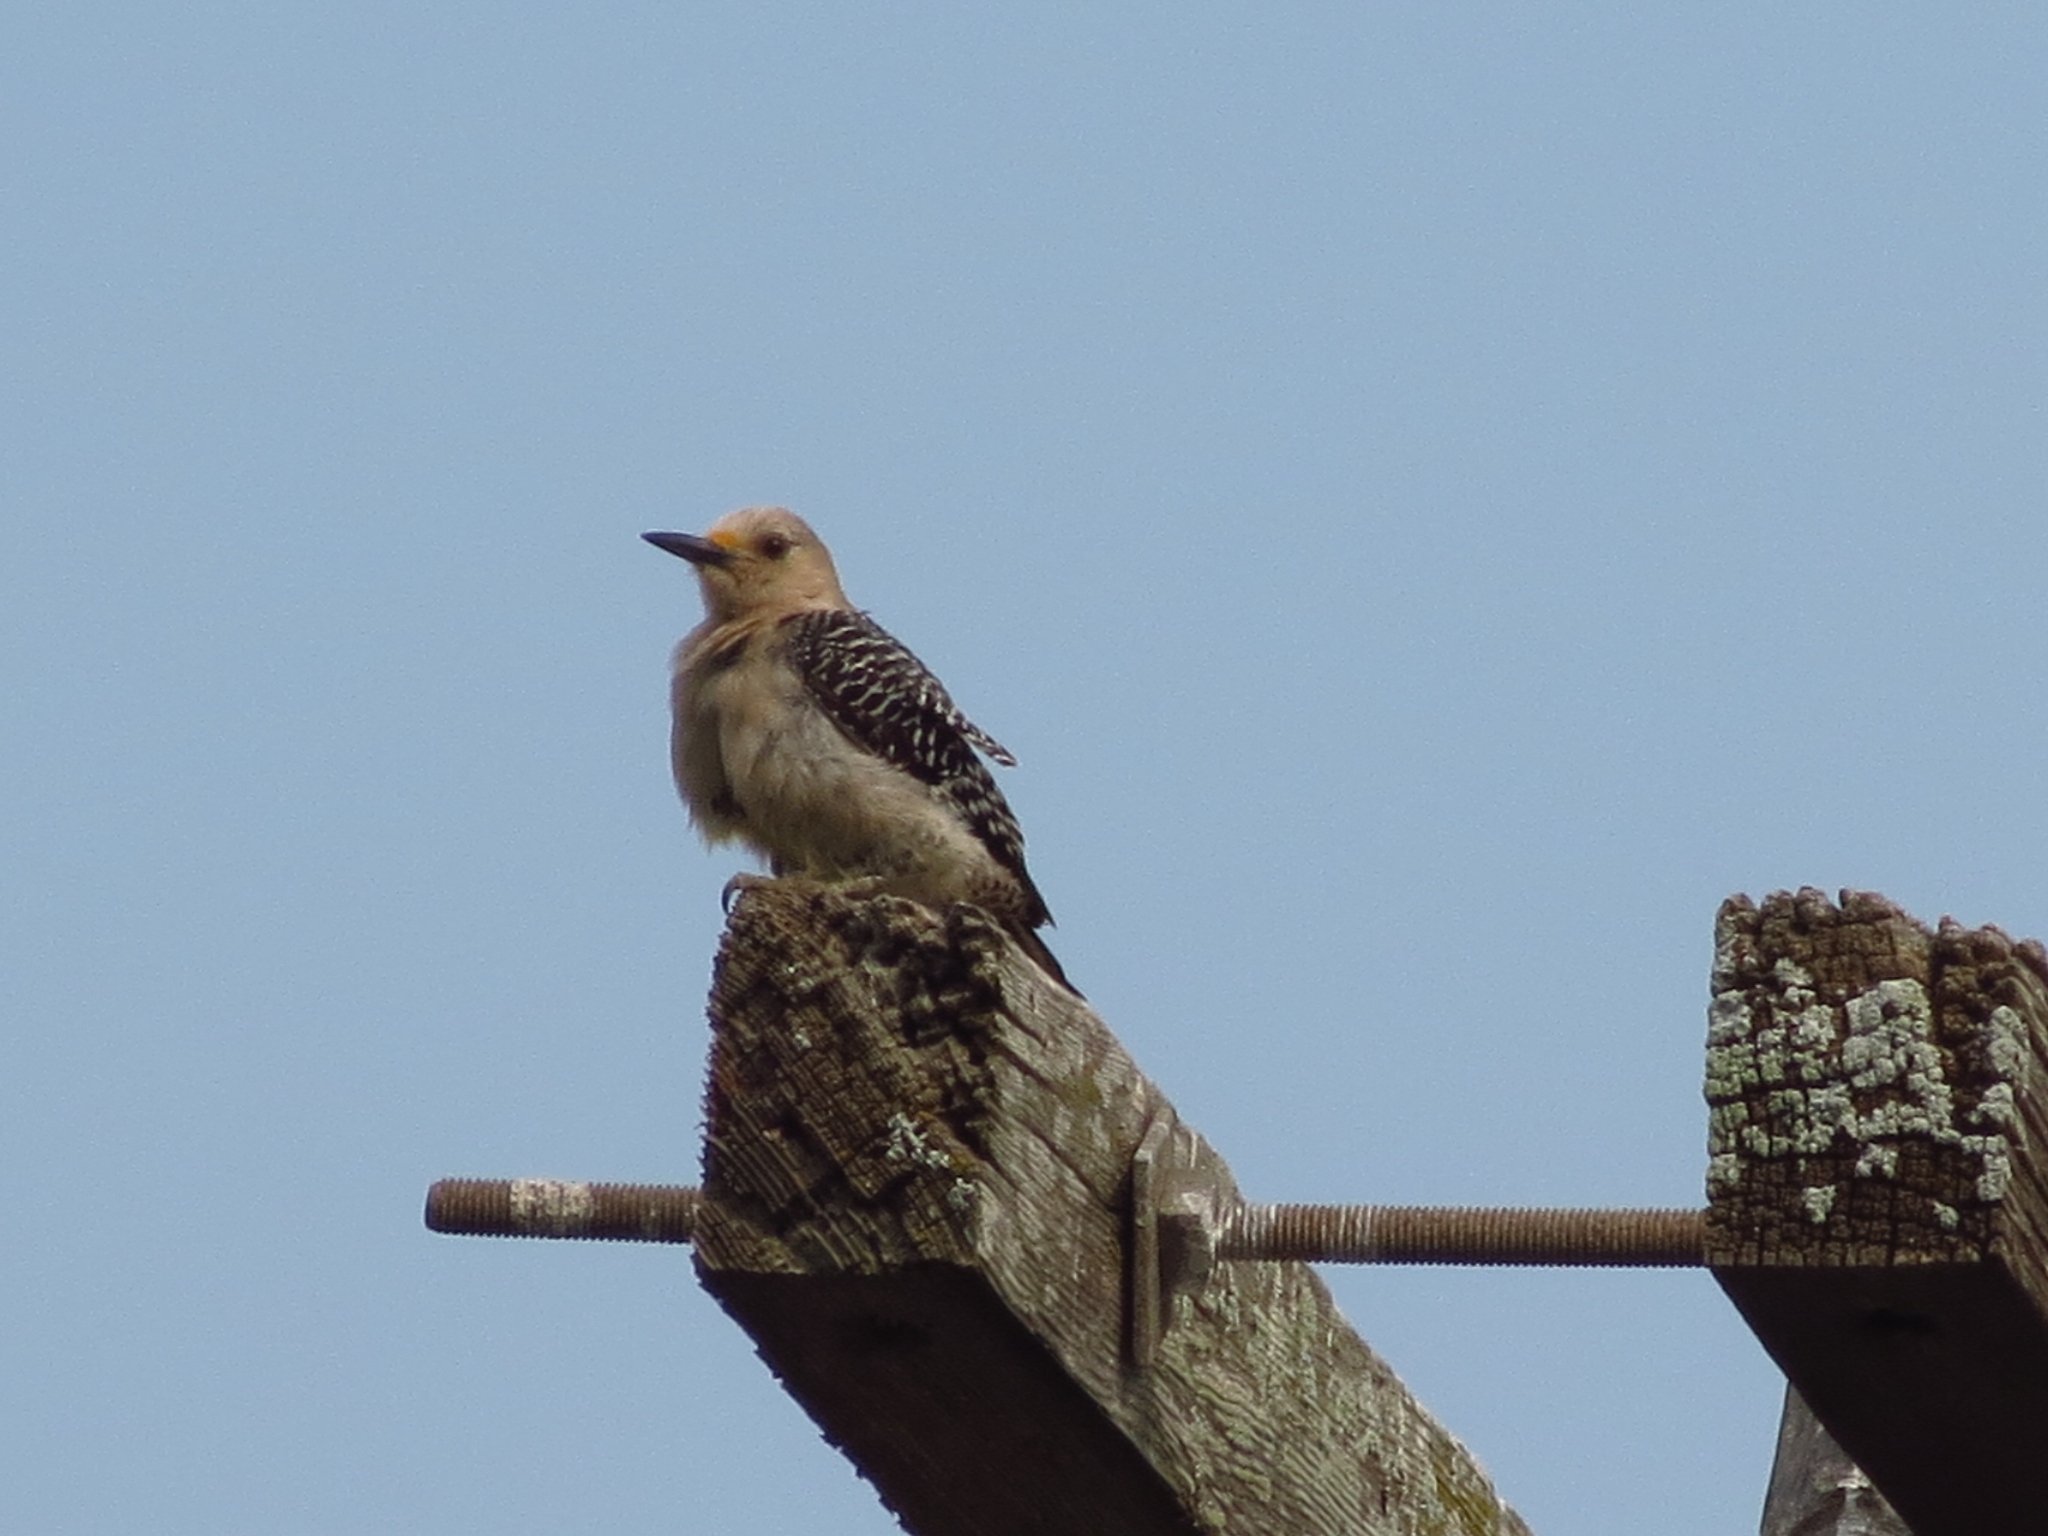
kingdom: Animalia
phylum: Chordata
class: Aves
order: Piciformes
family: Picidae
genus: Melanerpes
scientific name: Melanerpes aurifrons
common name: Golden-fronted woodpecker
